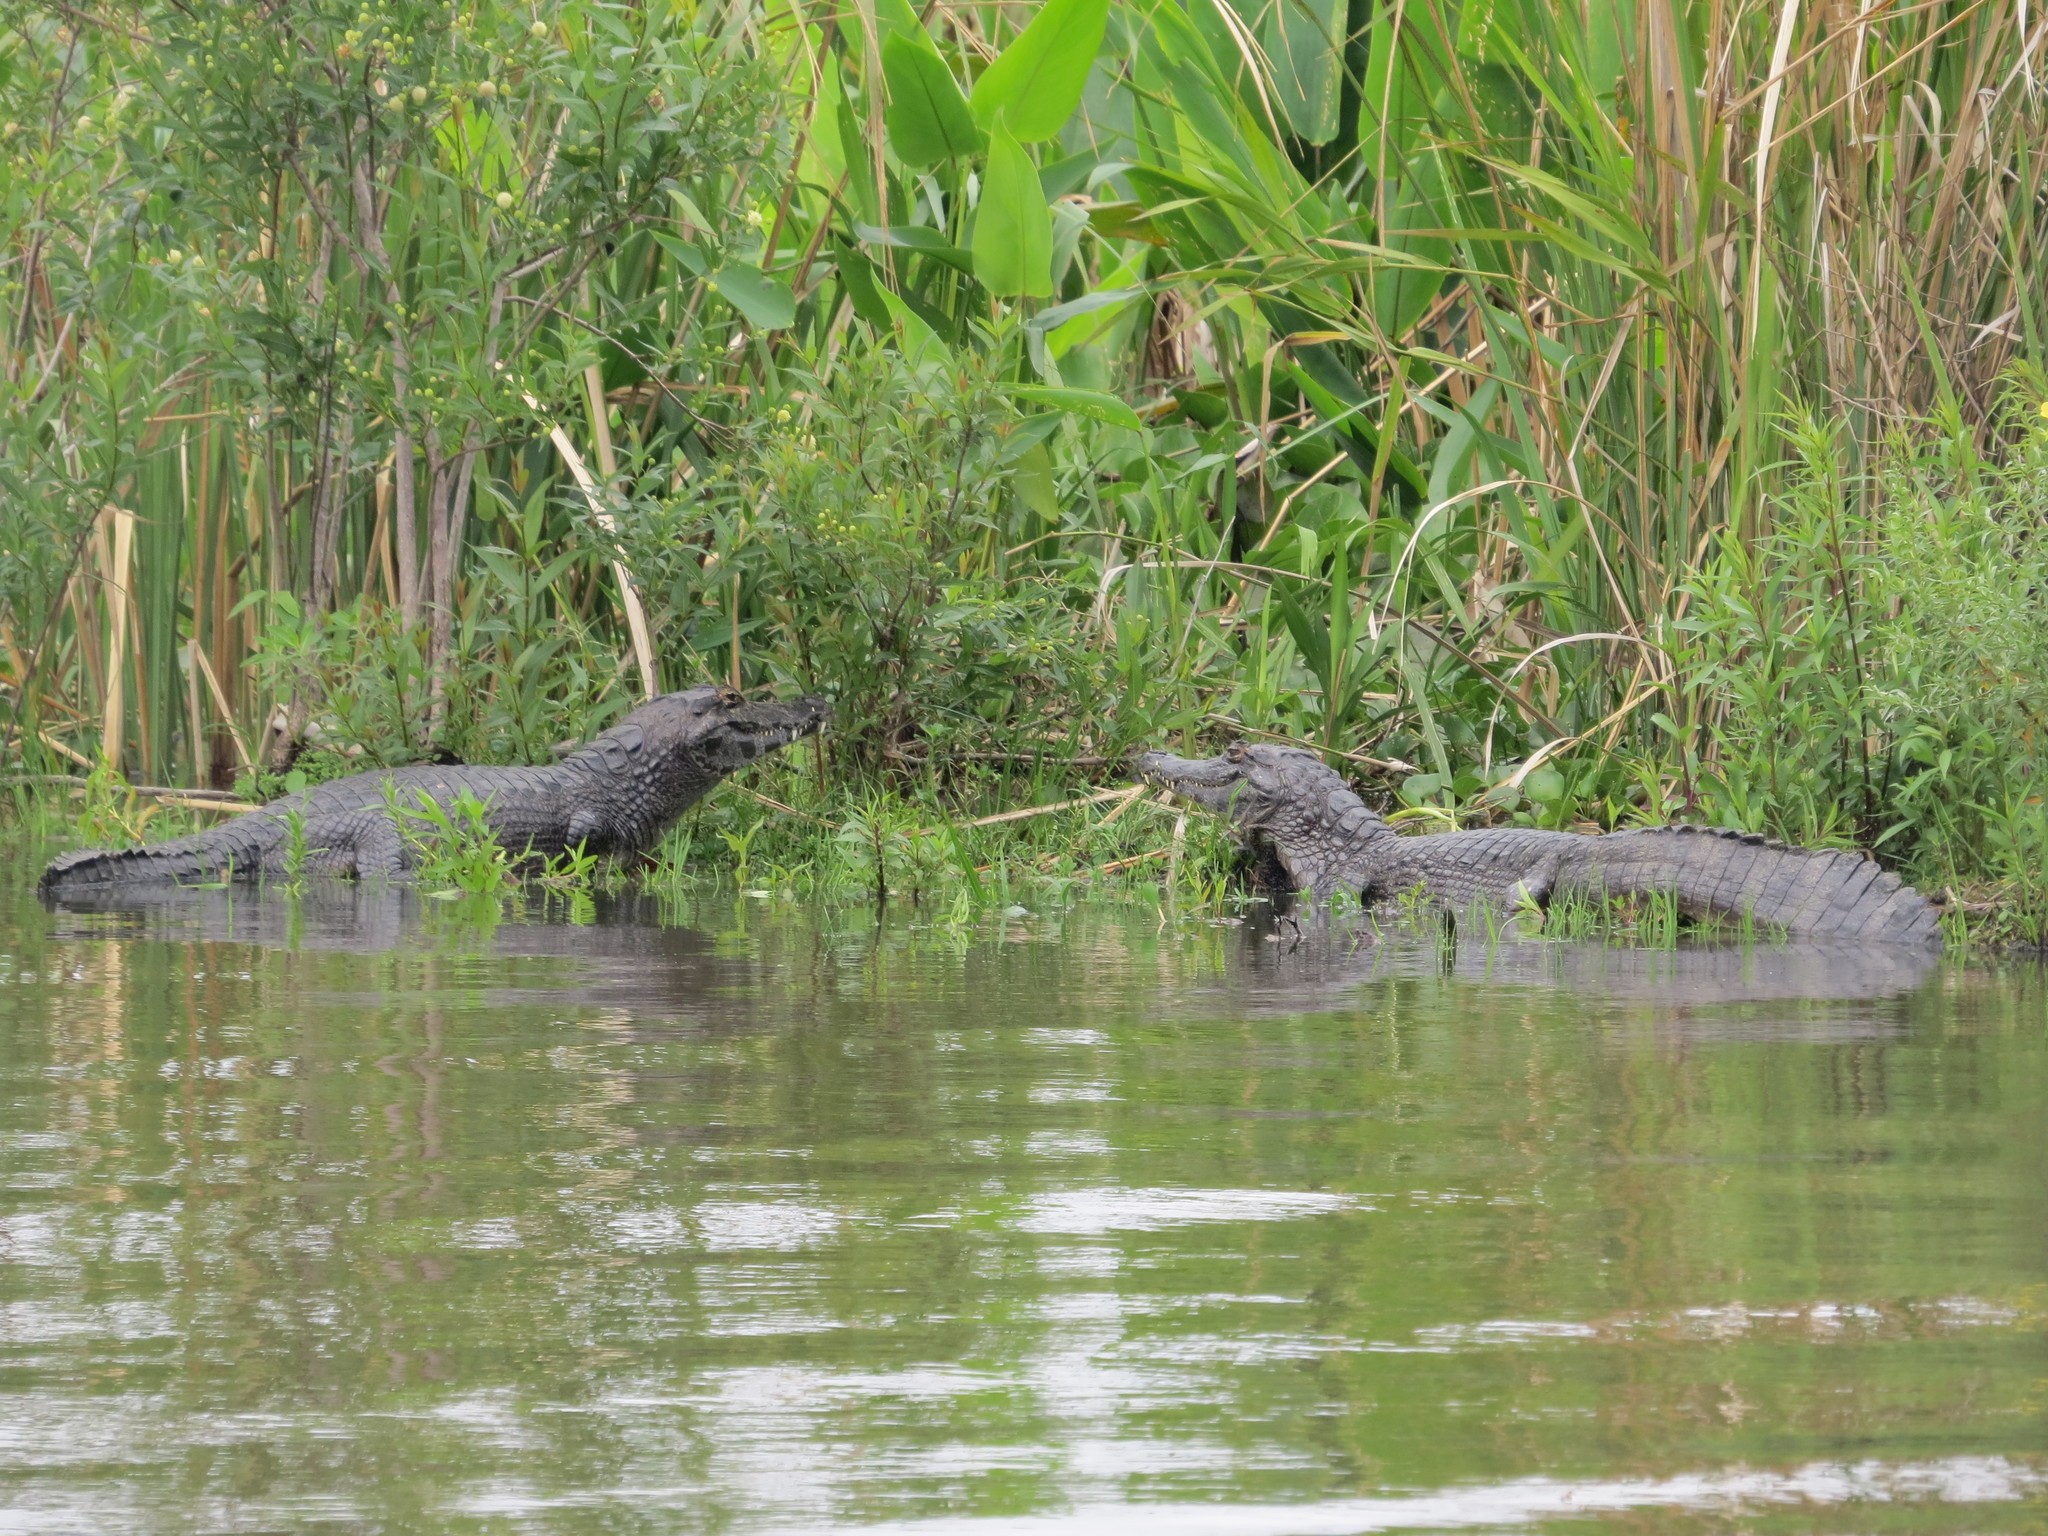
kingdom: Animalia
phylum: Chordata
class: Crocodylia
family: Alligatoridae
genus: Caiman
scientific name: Caiman yacare
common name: Yacare caiman
